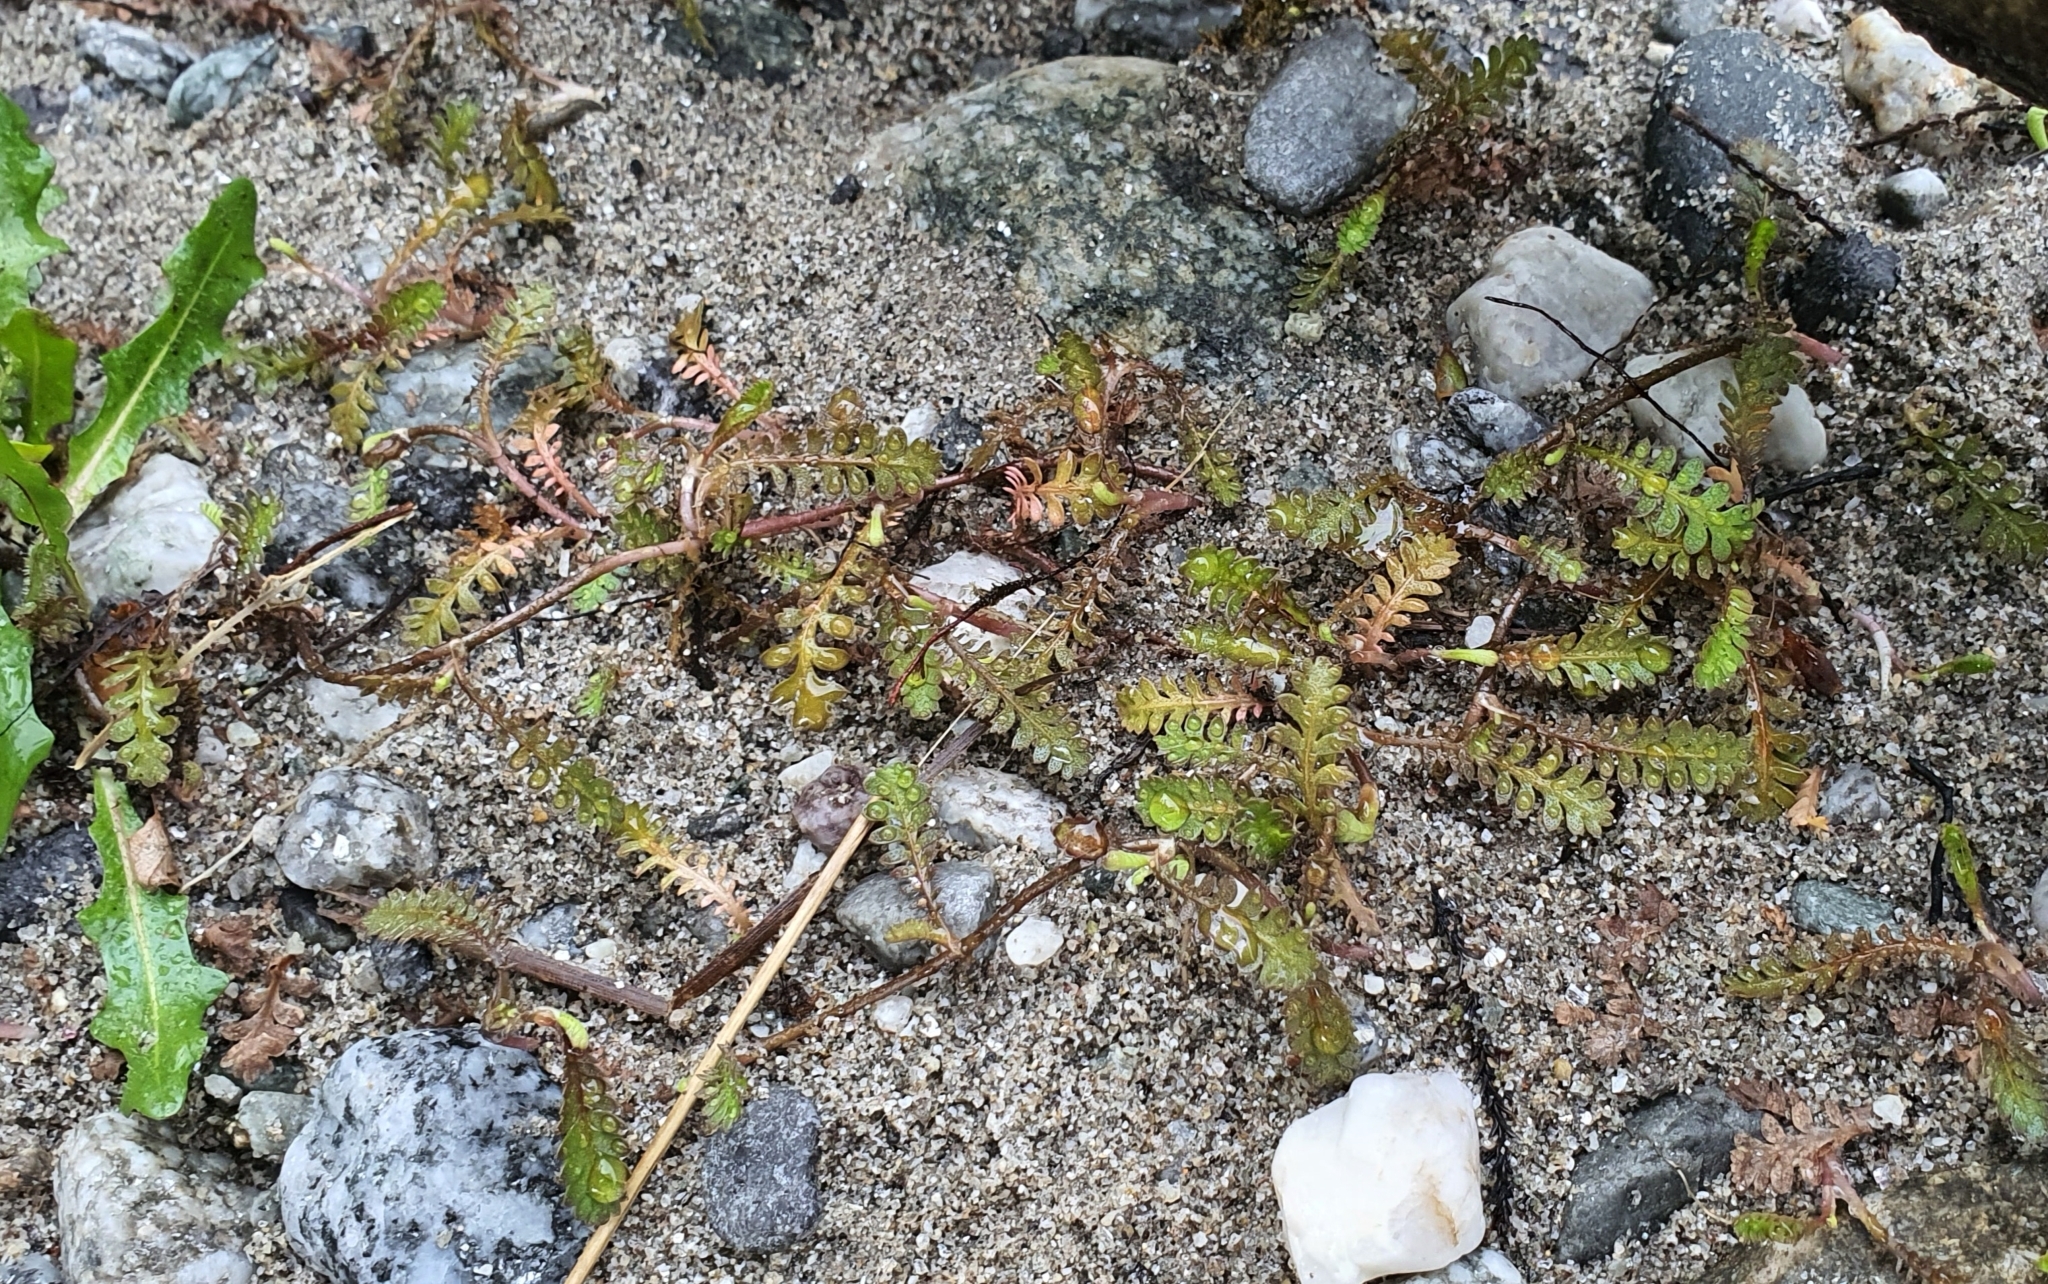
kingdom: Plantae
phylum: Tracheophyta
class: Magnoliopsida
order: Asterales
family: Asteraceae
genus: Leptinella
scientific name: Leptinella squalida
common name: New zealand brass-buttons
